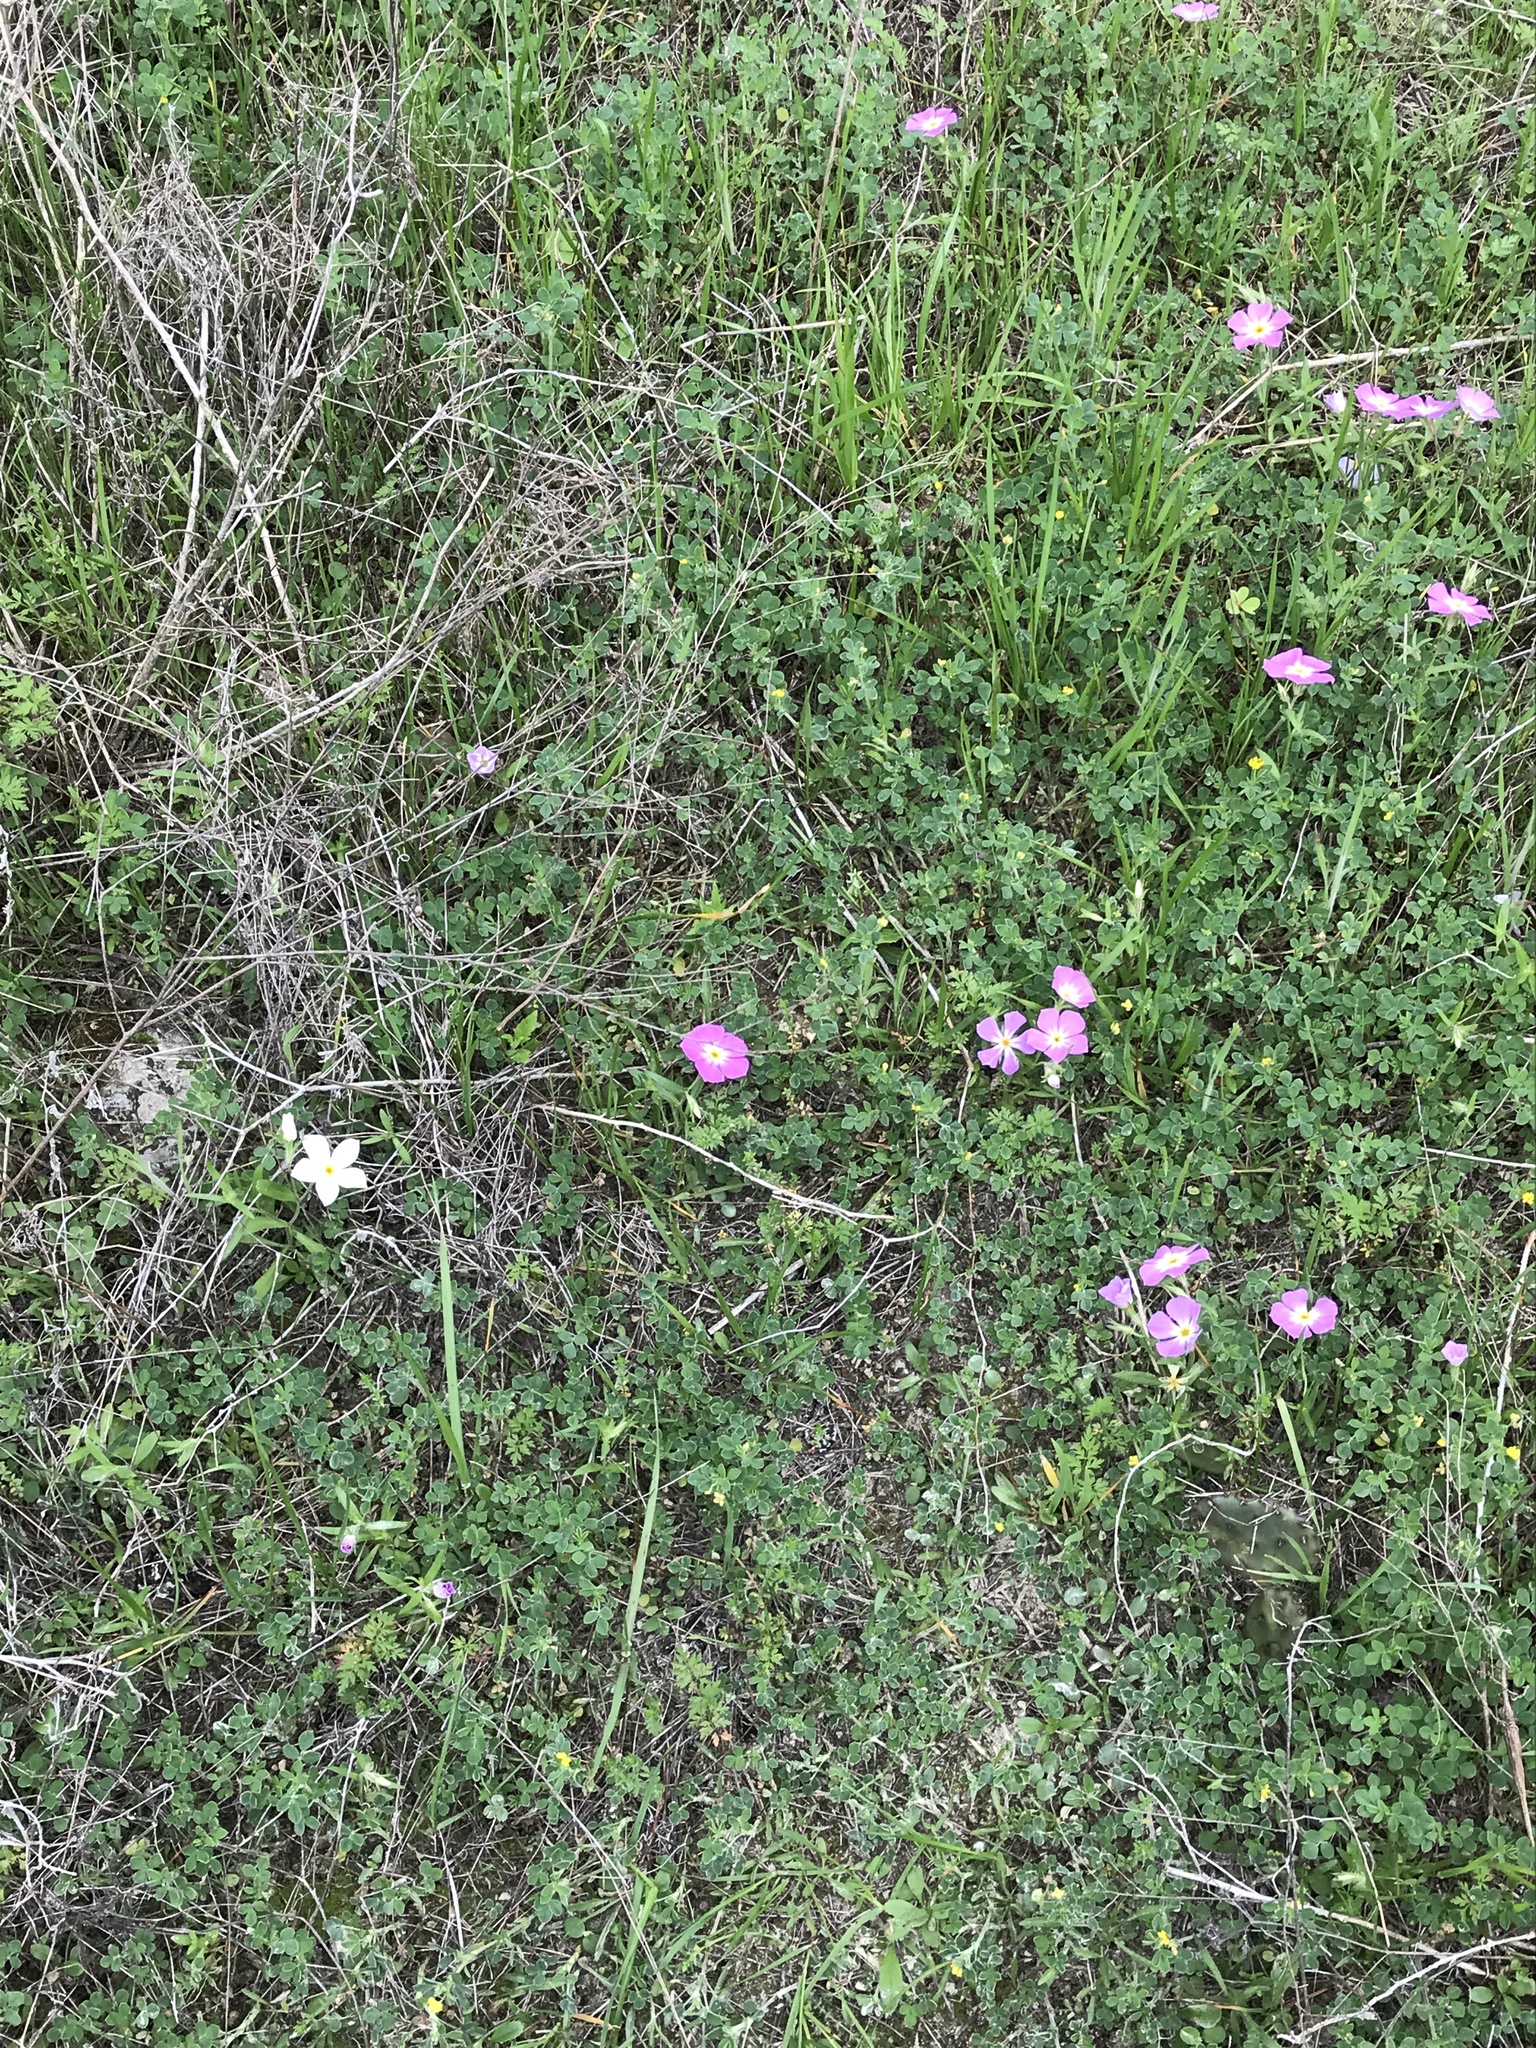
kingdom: Plantae
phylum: Tracheophyta
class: Magnoliopsida
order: Ericales
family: Polemoniaceae
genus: Phlox
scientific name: Phlox roemeriana
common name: Roemer's phlox
